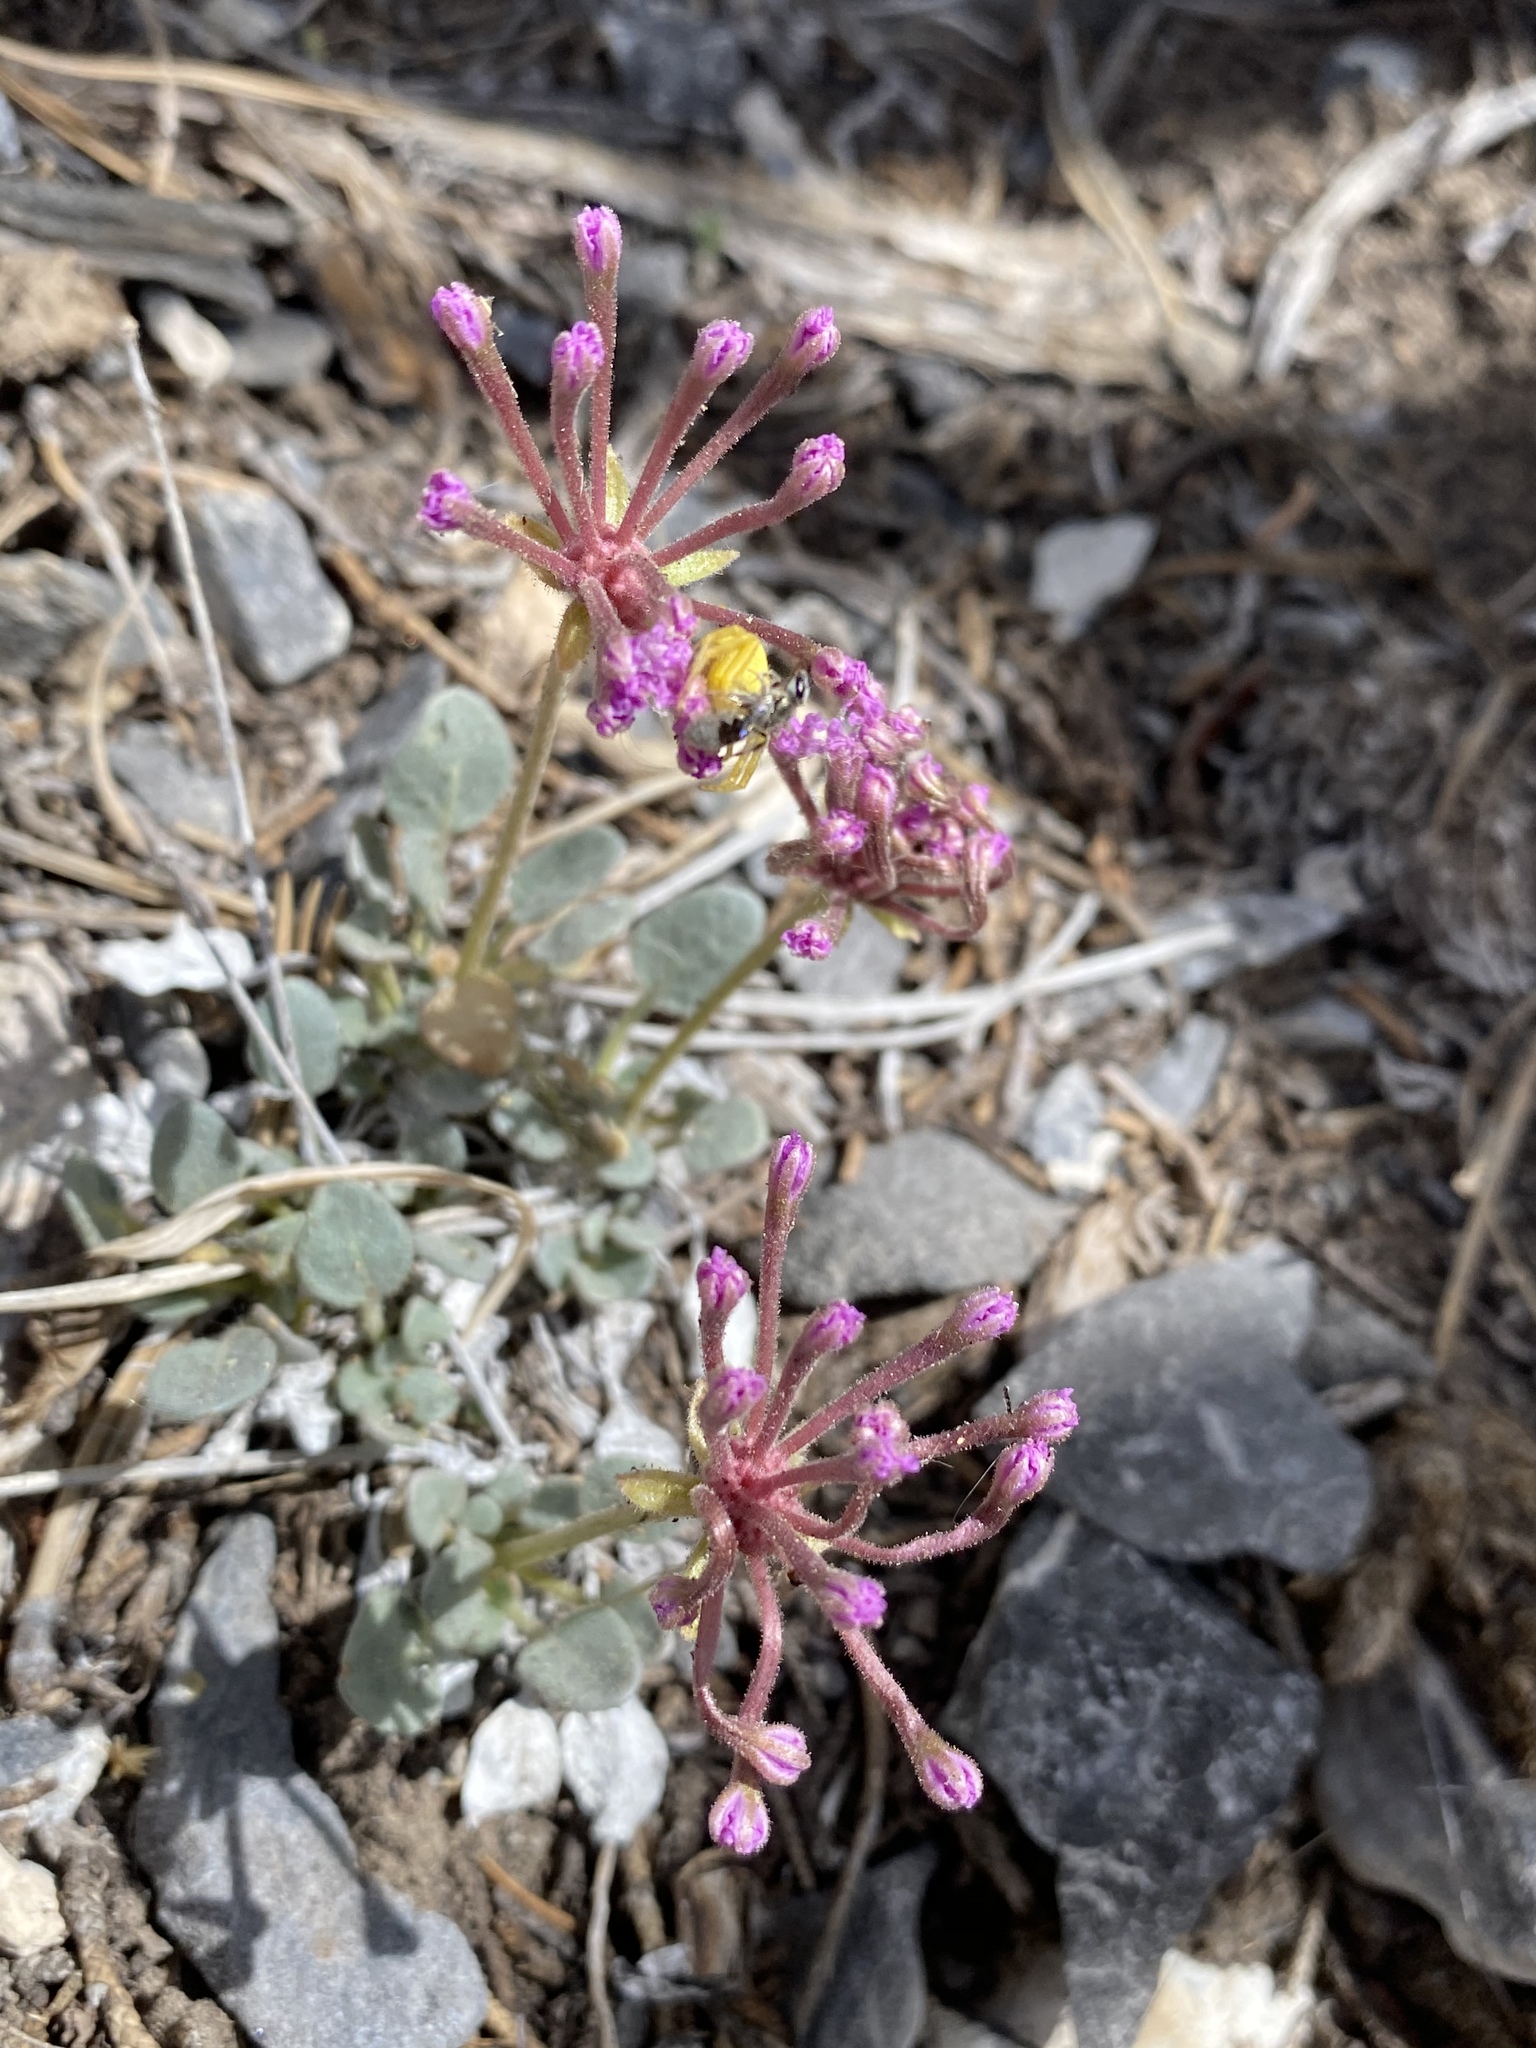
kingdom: Plantae
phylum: Tracheophyta
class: Magnoliopsida
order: Caryophyllales
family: Nyctaginaceae
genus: Abronia
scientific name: Abronia nana
